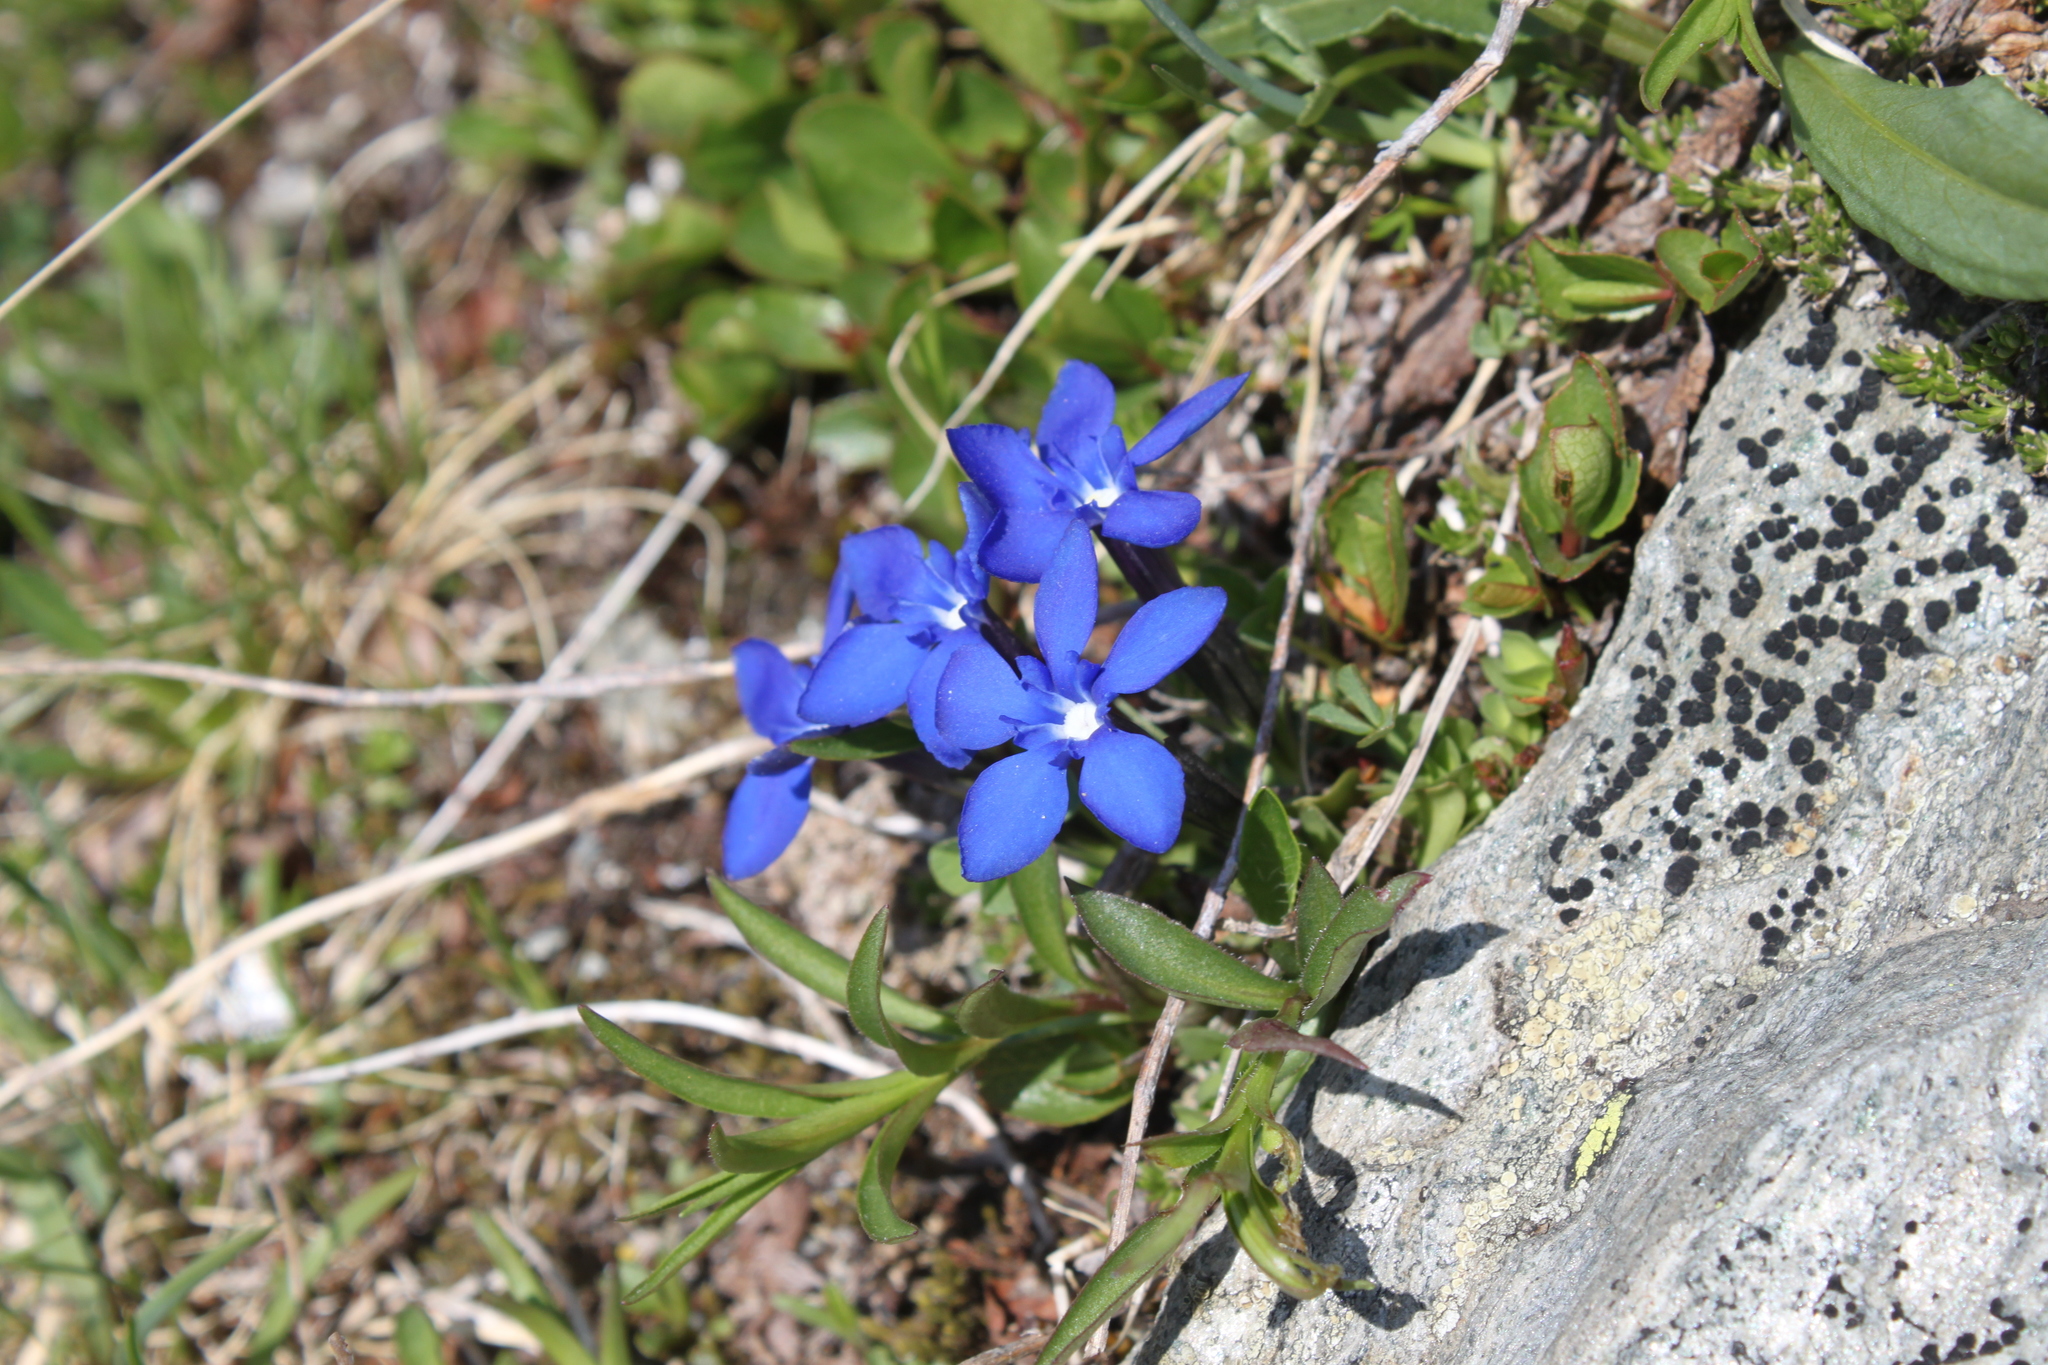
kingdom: Plantae
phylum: Tracheophyta
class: Magnoliopsida
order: Gentianales
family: Gentianaceae
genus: Gentiana
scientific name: Gentiana brachyphylla
